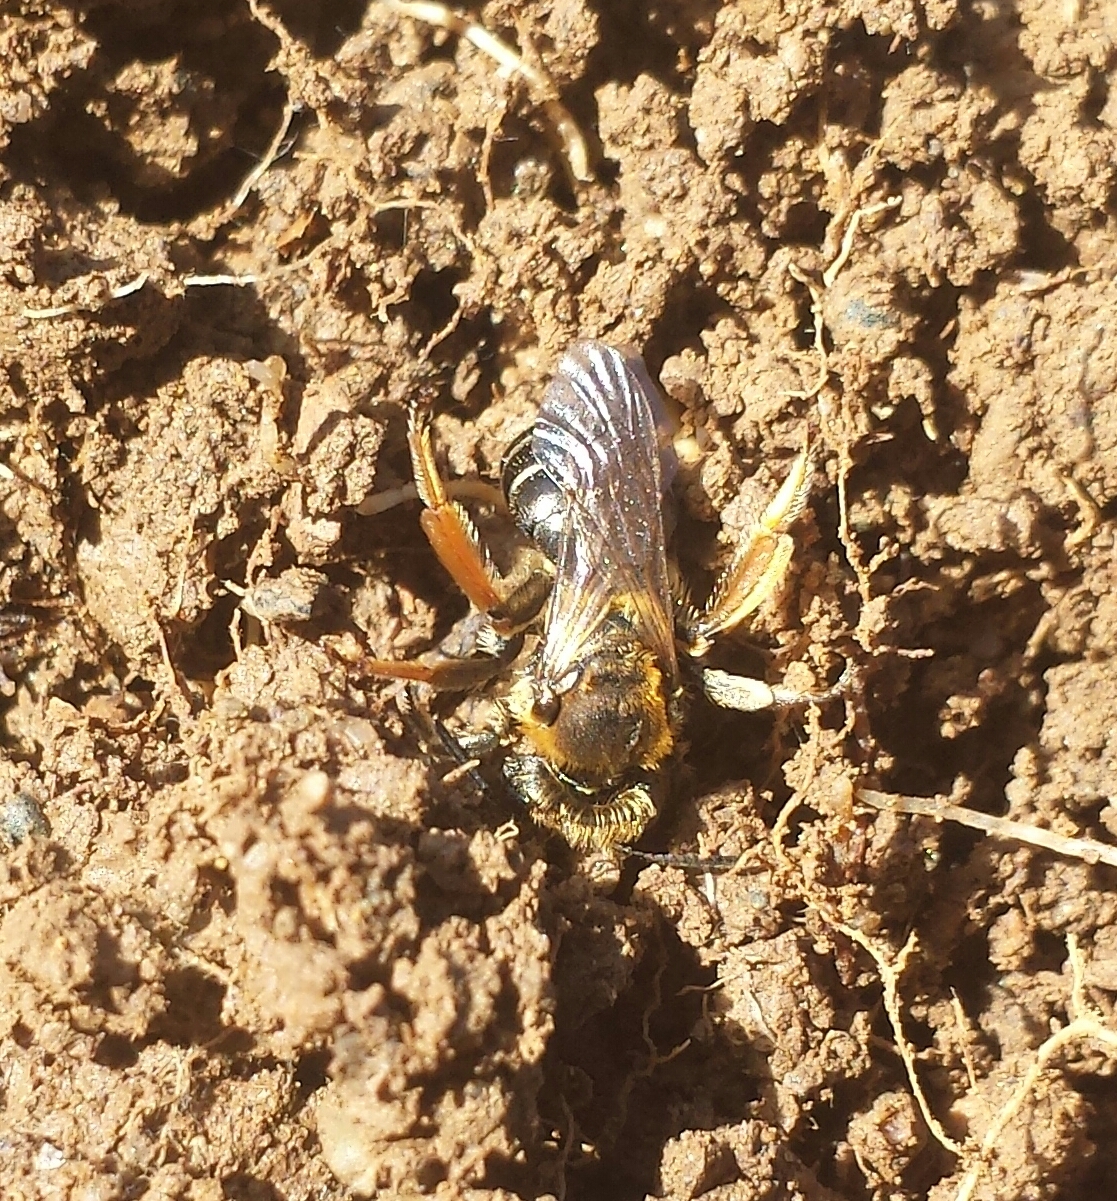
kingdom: Animalia
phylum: Arthropoda
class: Insecta
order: Hymenoptera
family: Andrenidae
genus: Andrena
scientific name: Andrena wilkella
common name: Wilke's mining bee
